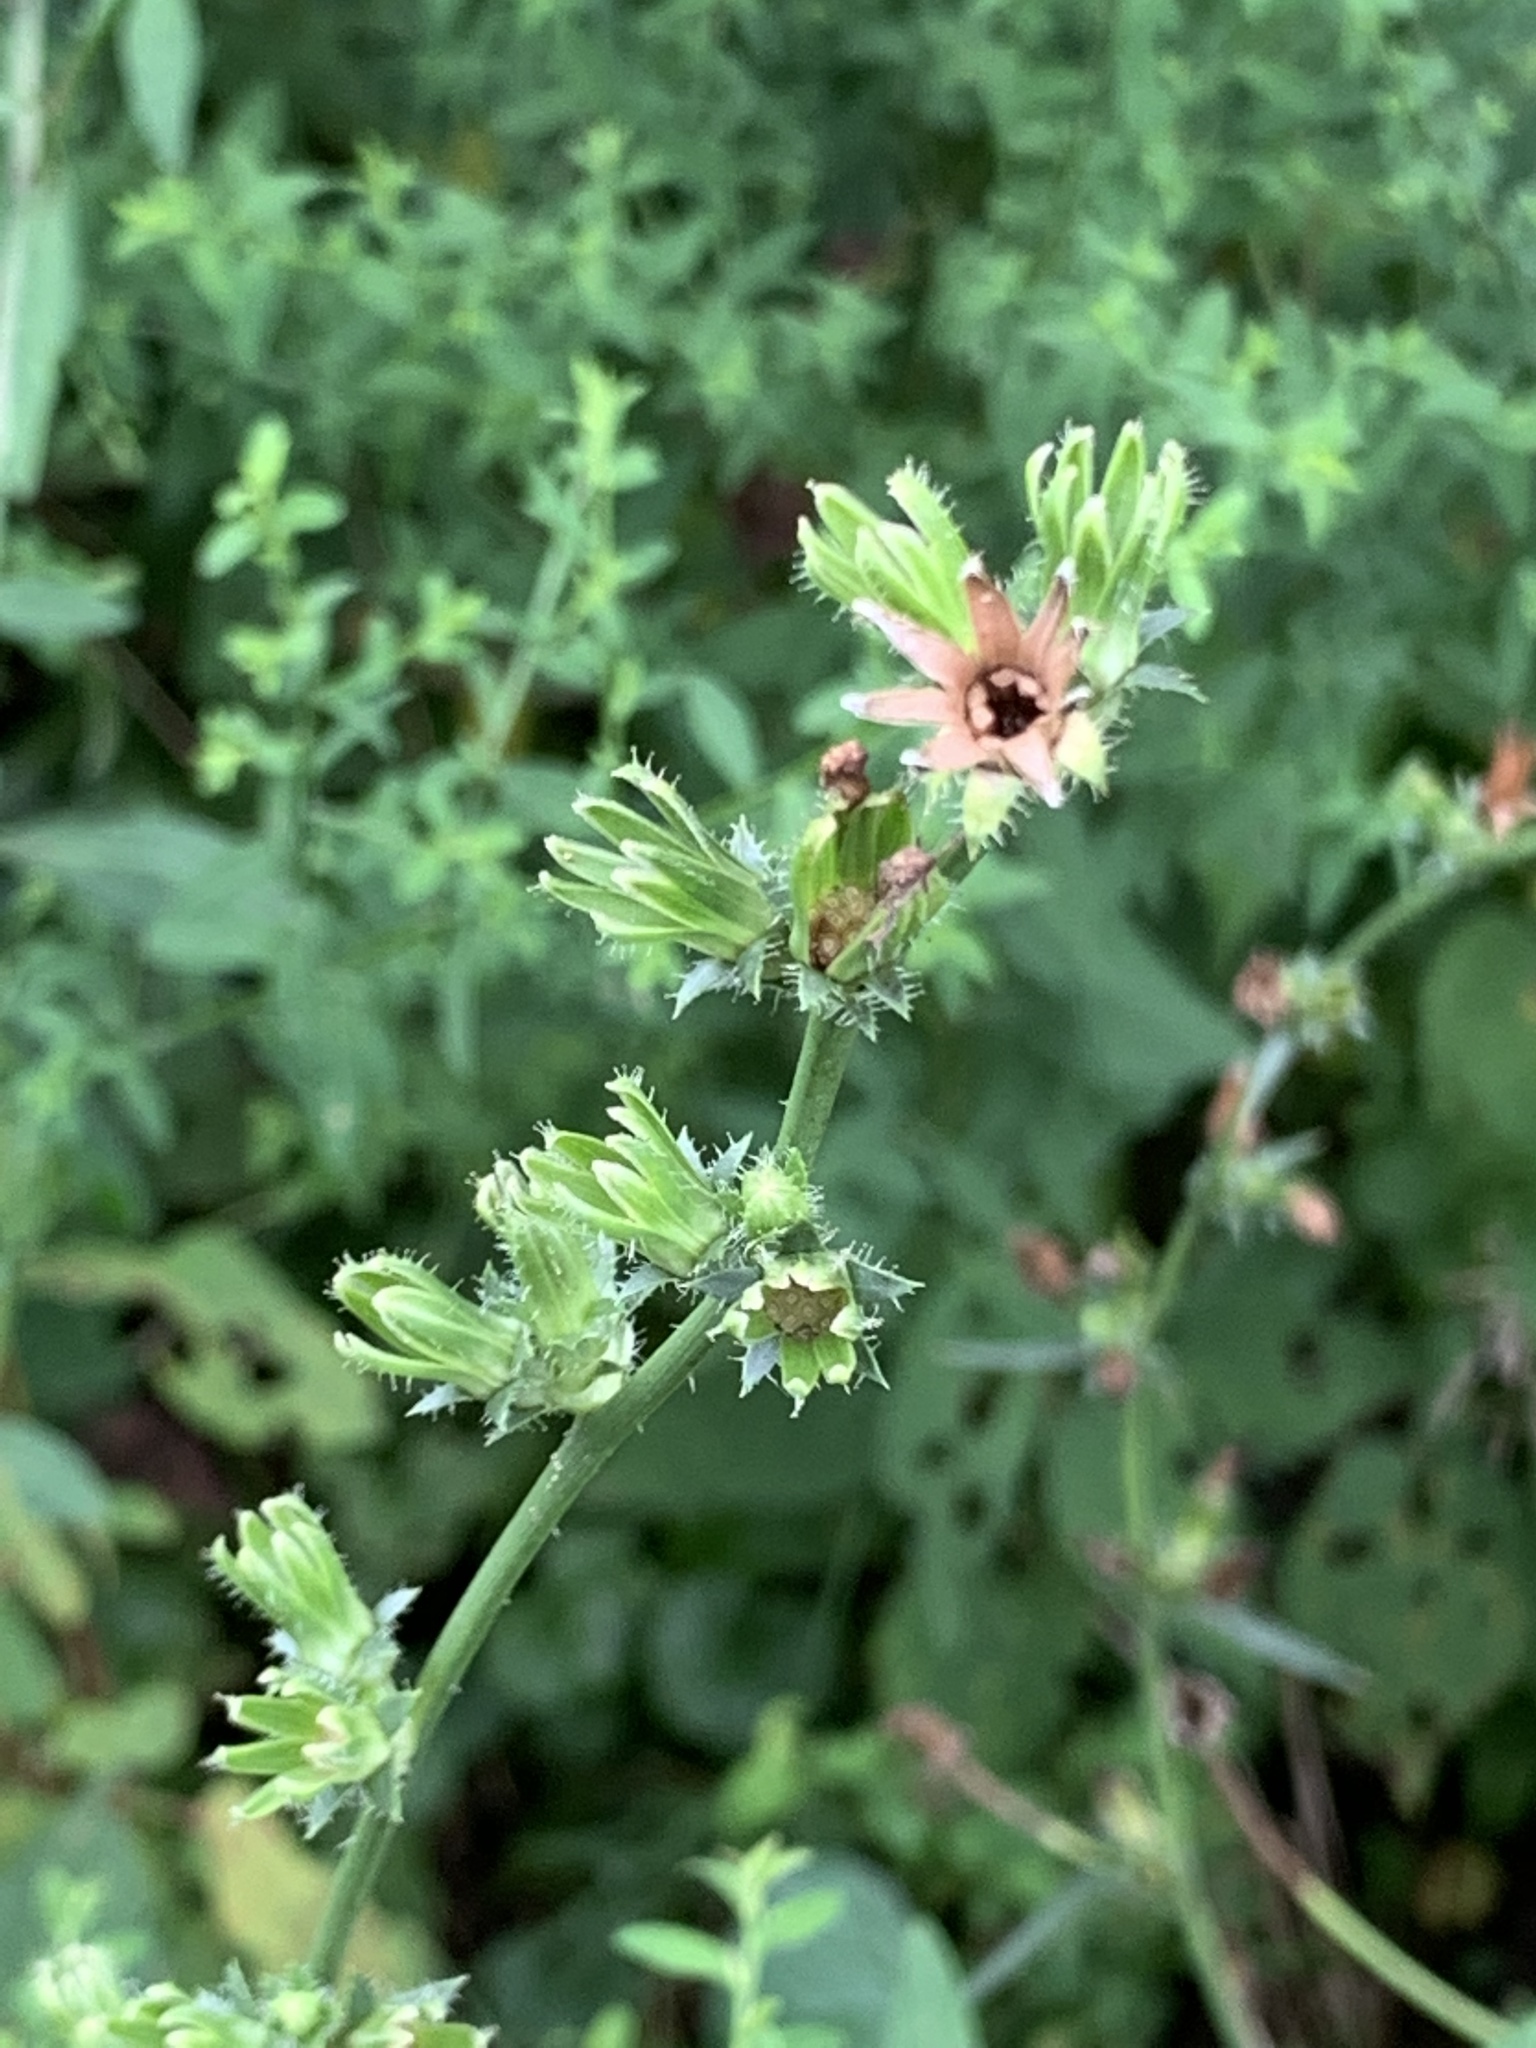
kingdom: Plantae
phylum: Tracheophyta
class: Magnoliopsida
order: Asterales
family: Asteraceae
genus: Cichorium
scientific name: Cichorium intybus
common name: Chicory
